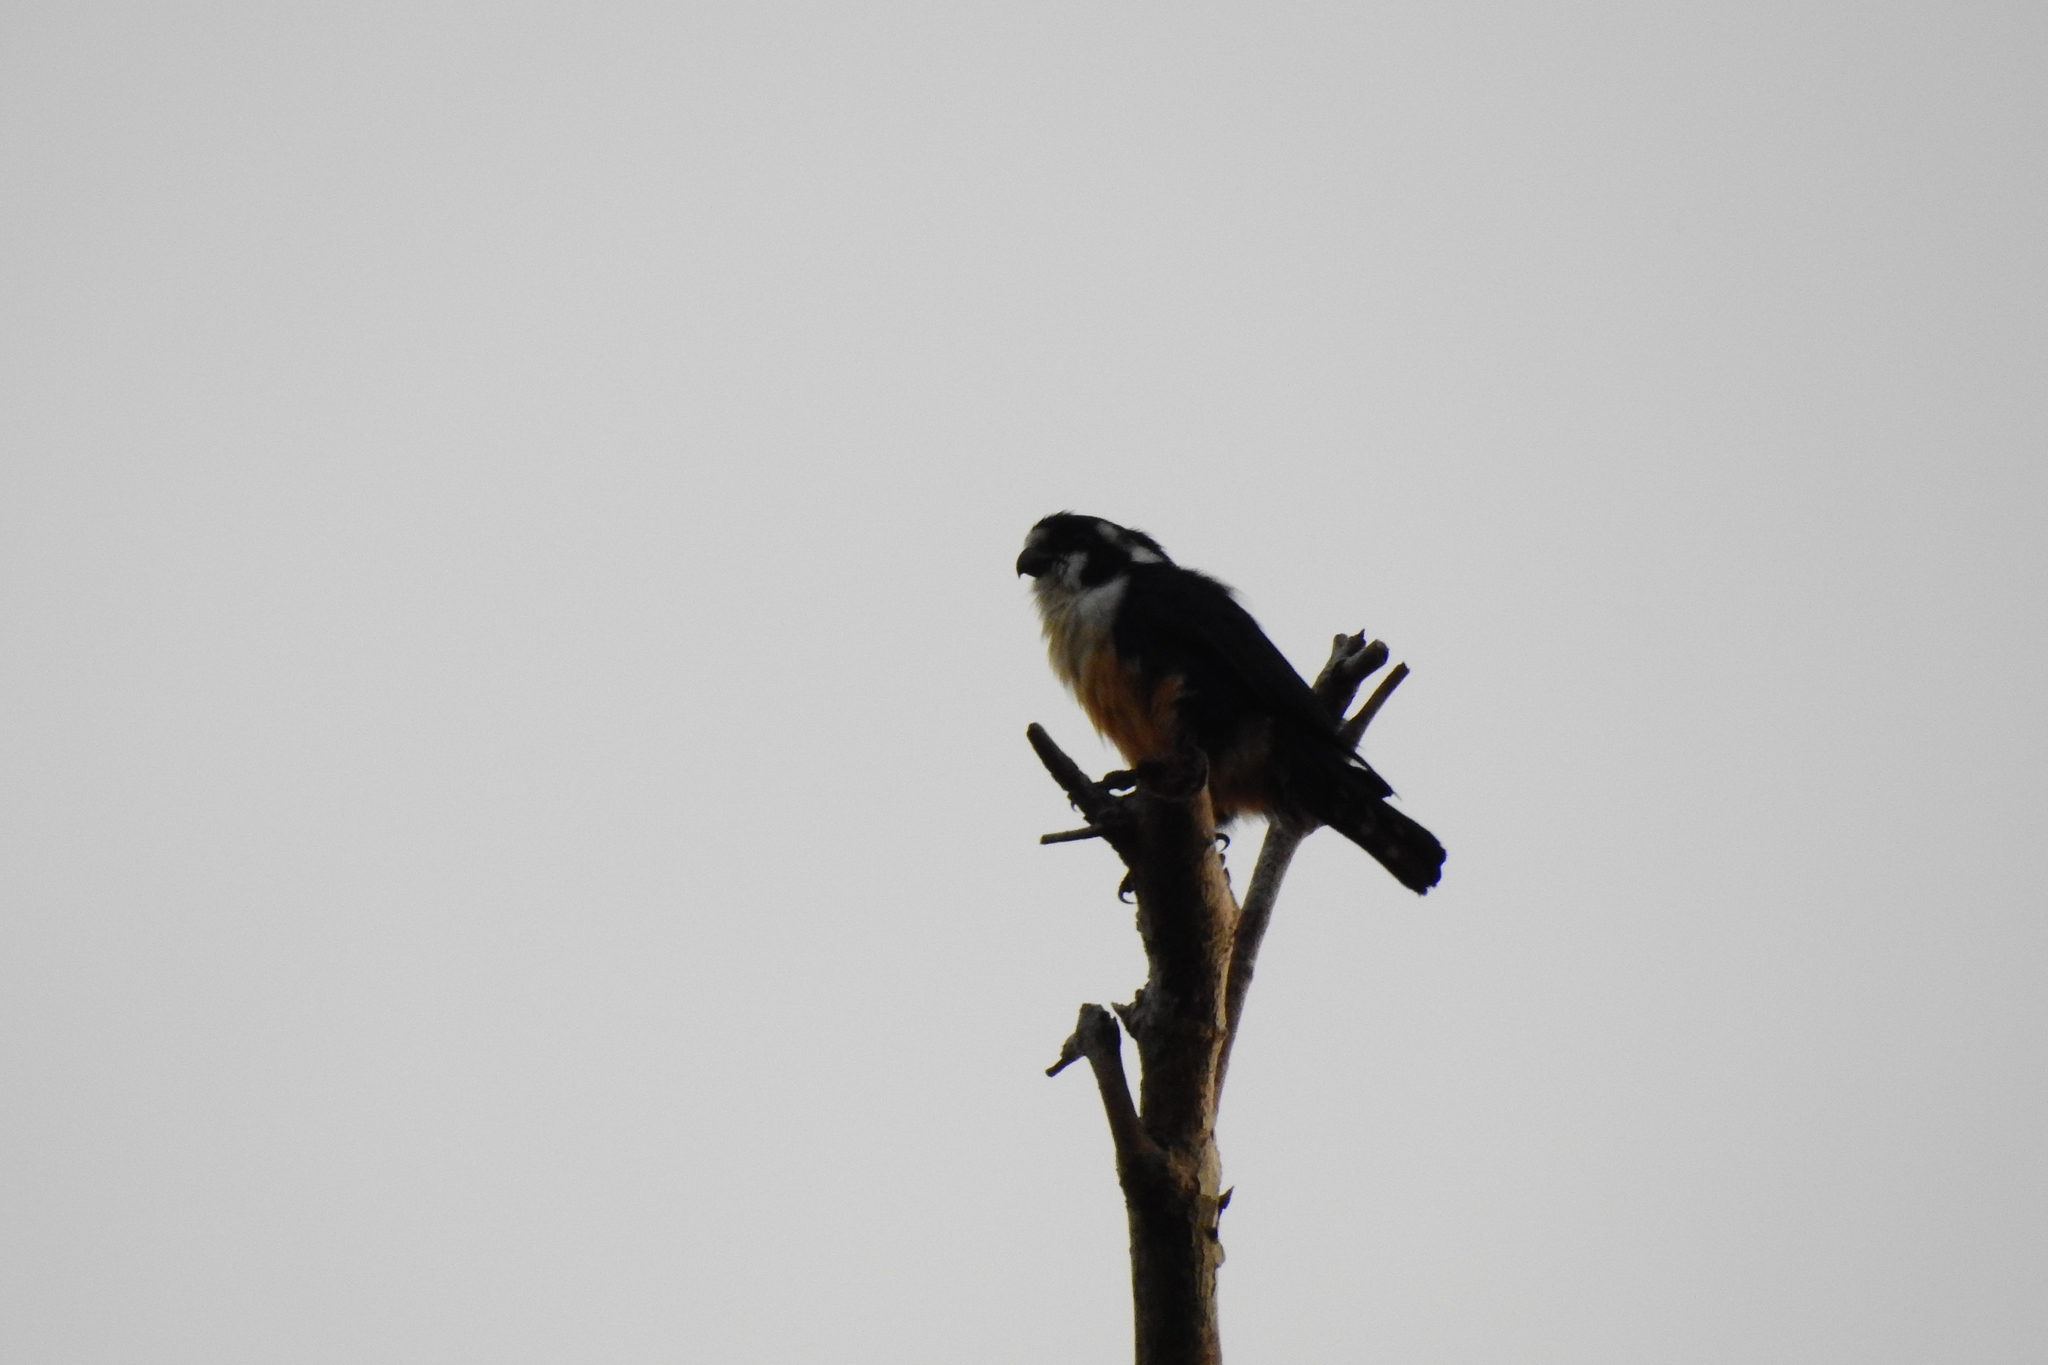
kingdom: Animalia
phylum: Chordata
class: Aves
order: Falconiformes
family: Falconidae
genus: Microhierax
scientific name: Microhierax fringillarius
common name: Black-thighed falconet
